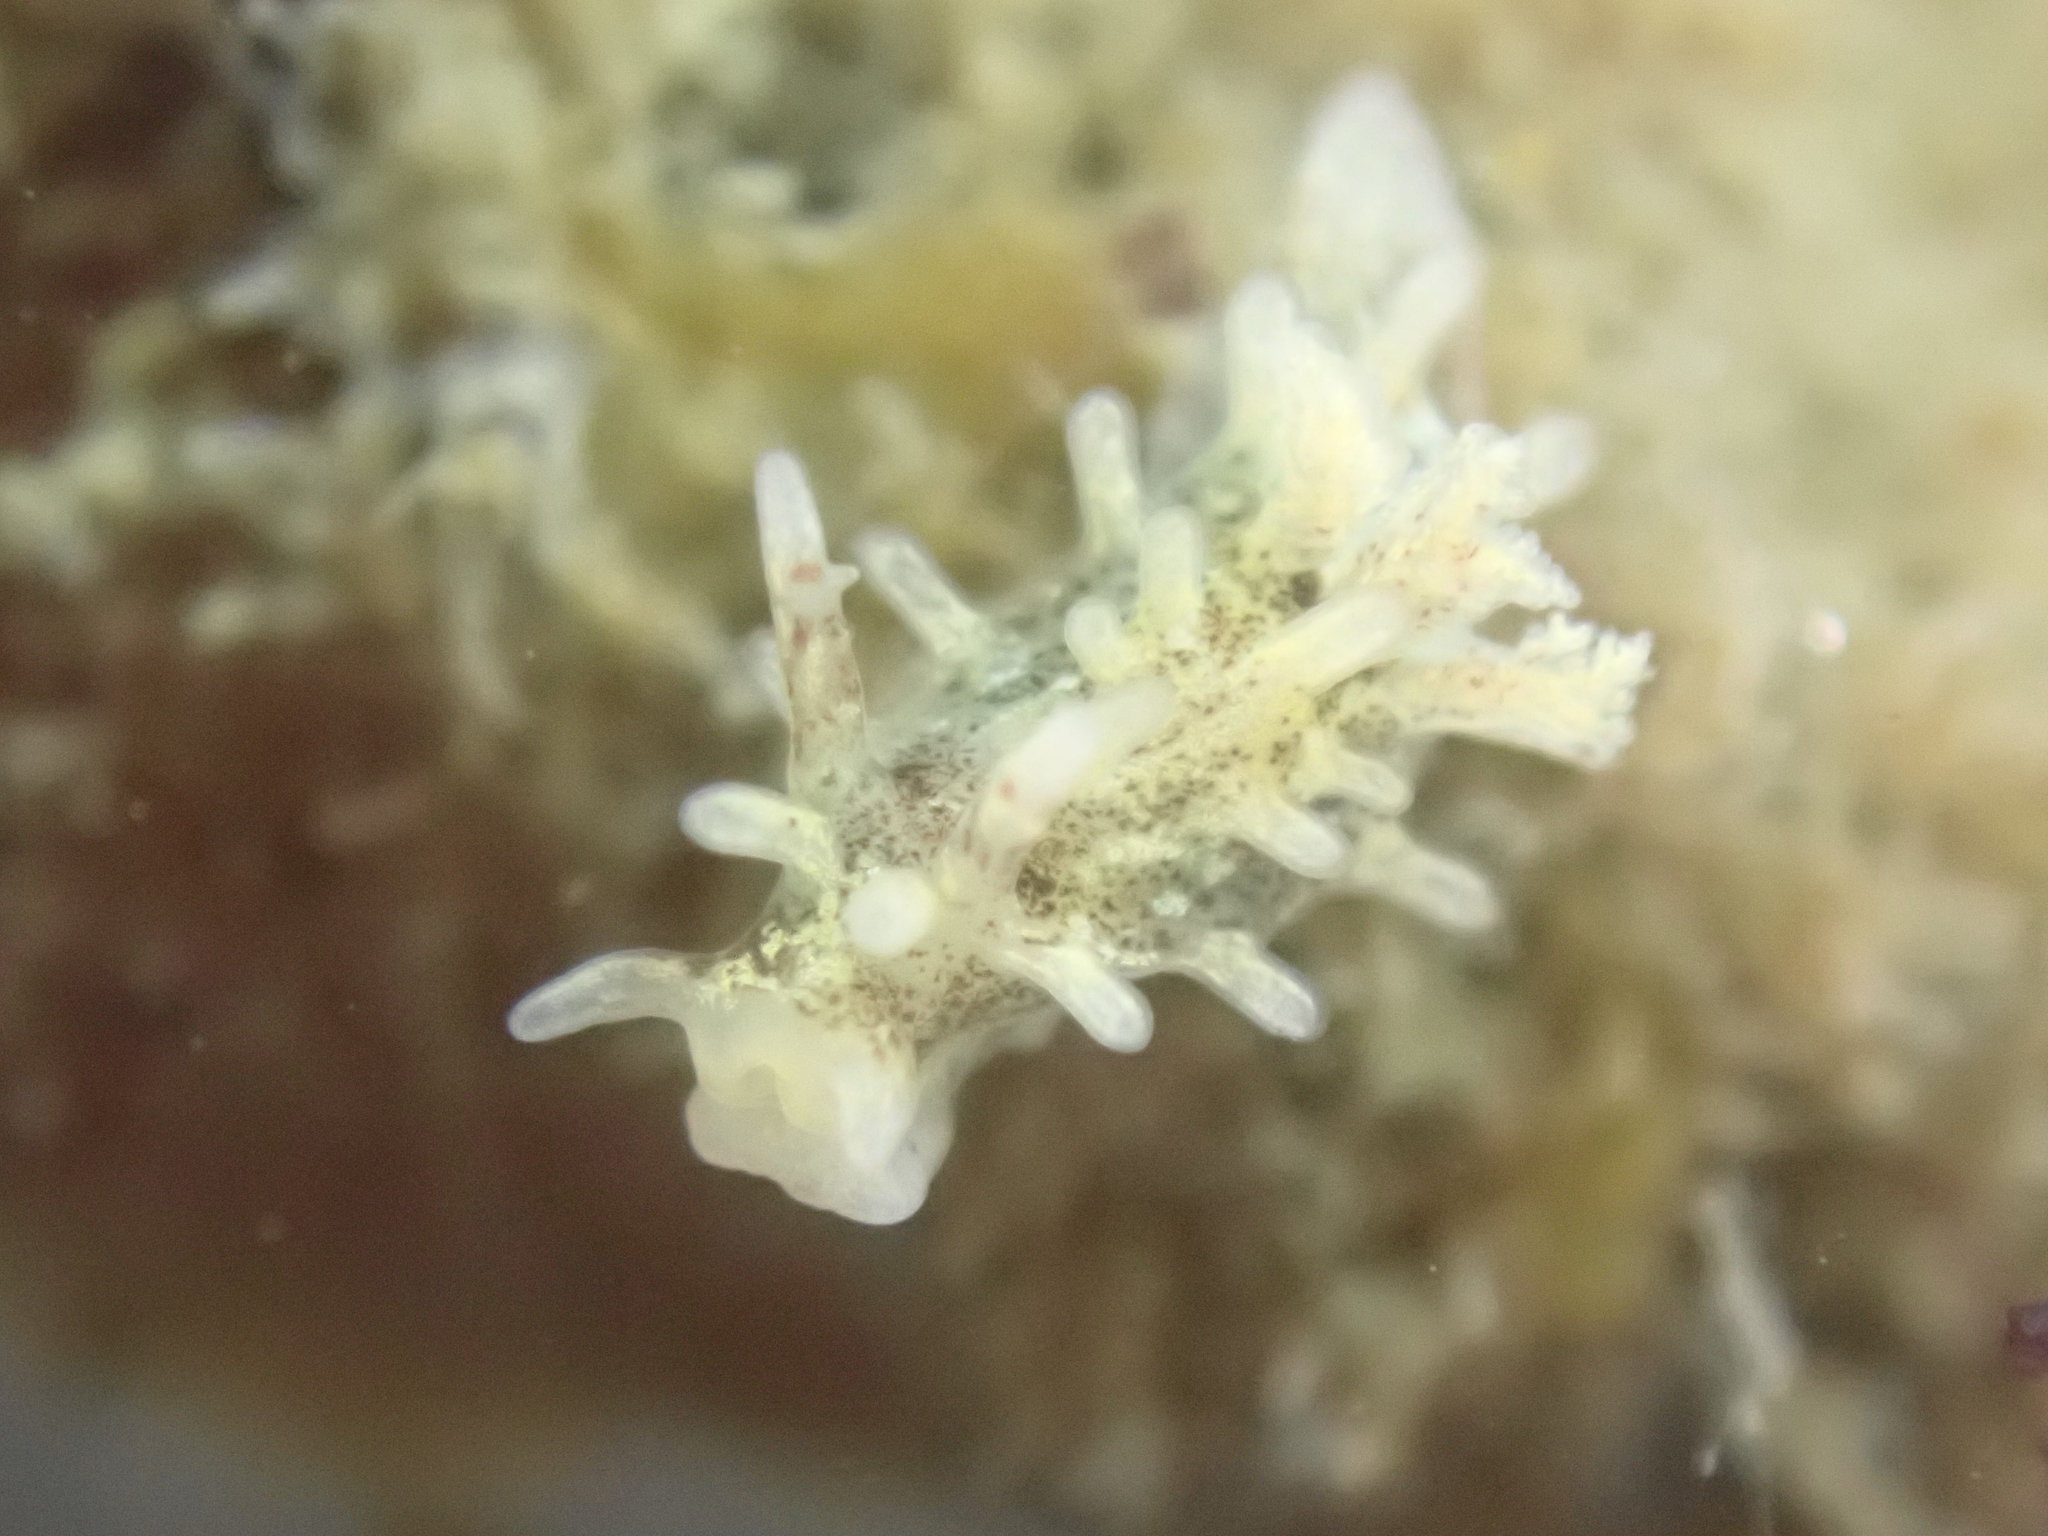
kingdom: Animalia
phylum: Mollusca
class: Gastropoda
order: Nudibranchia
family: Goniodorididae
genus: Okenia
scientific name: Okenia
